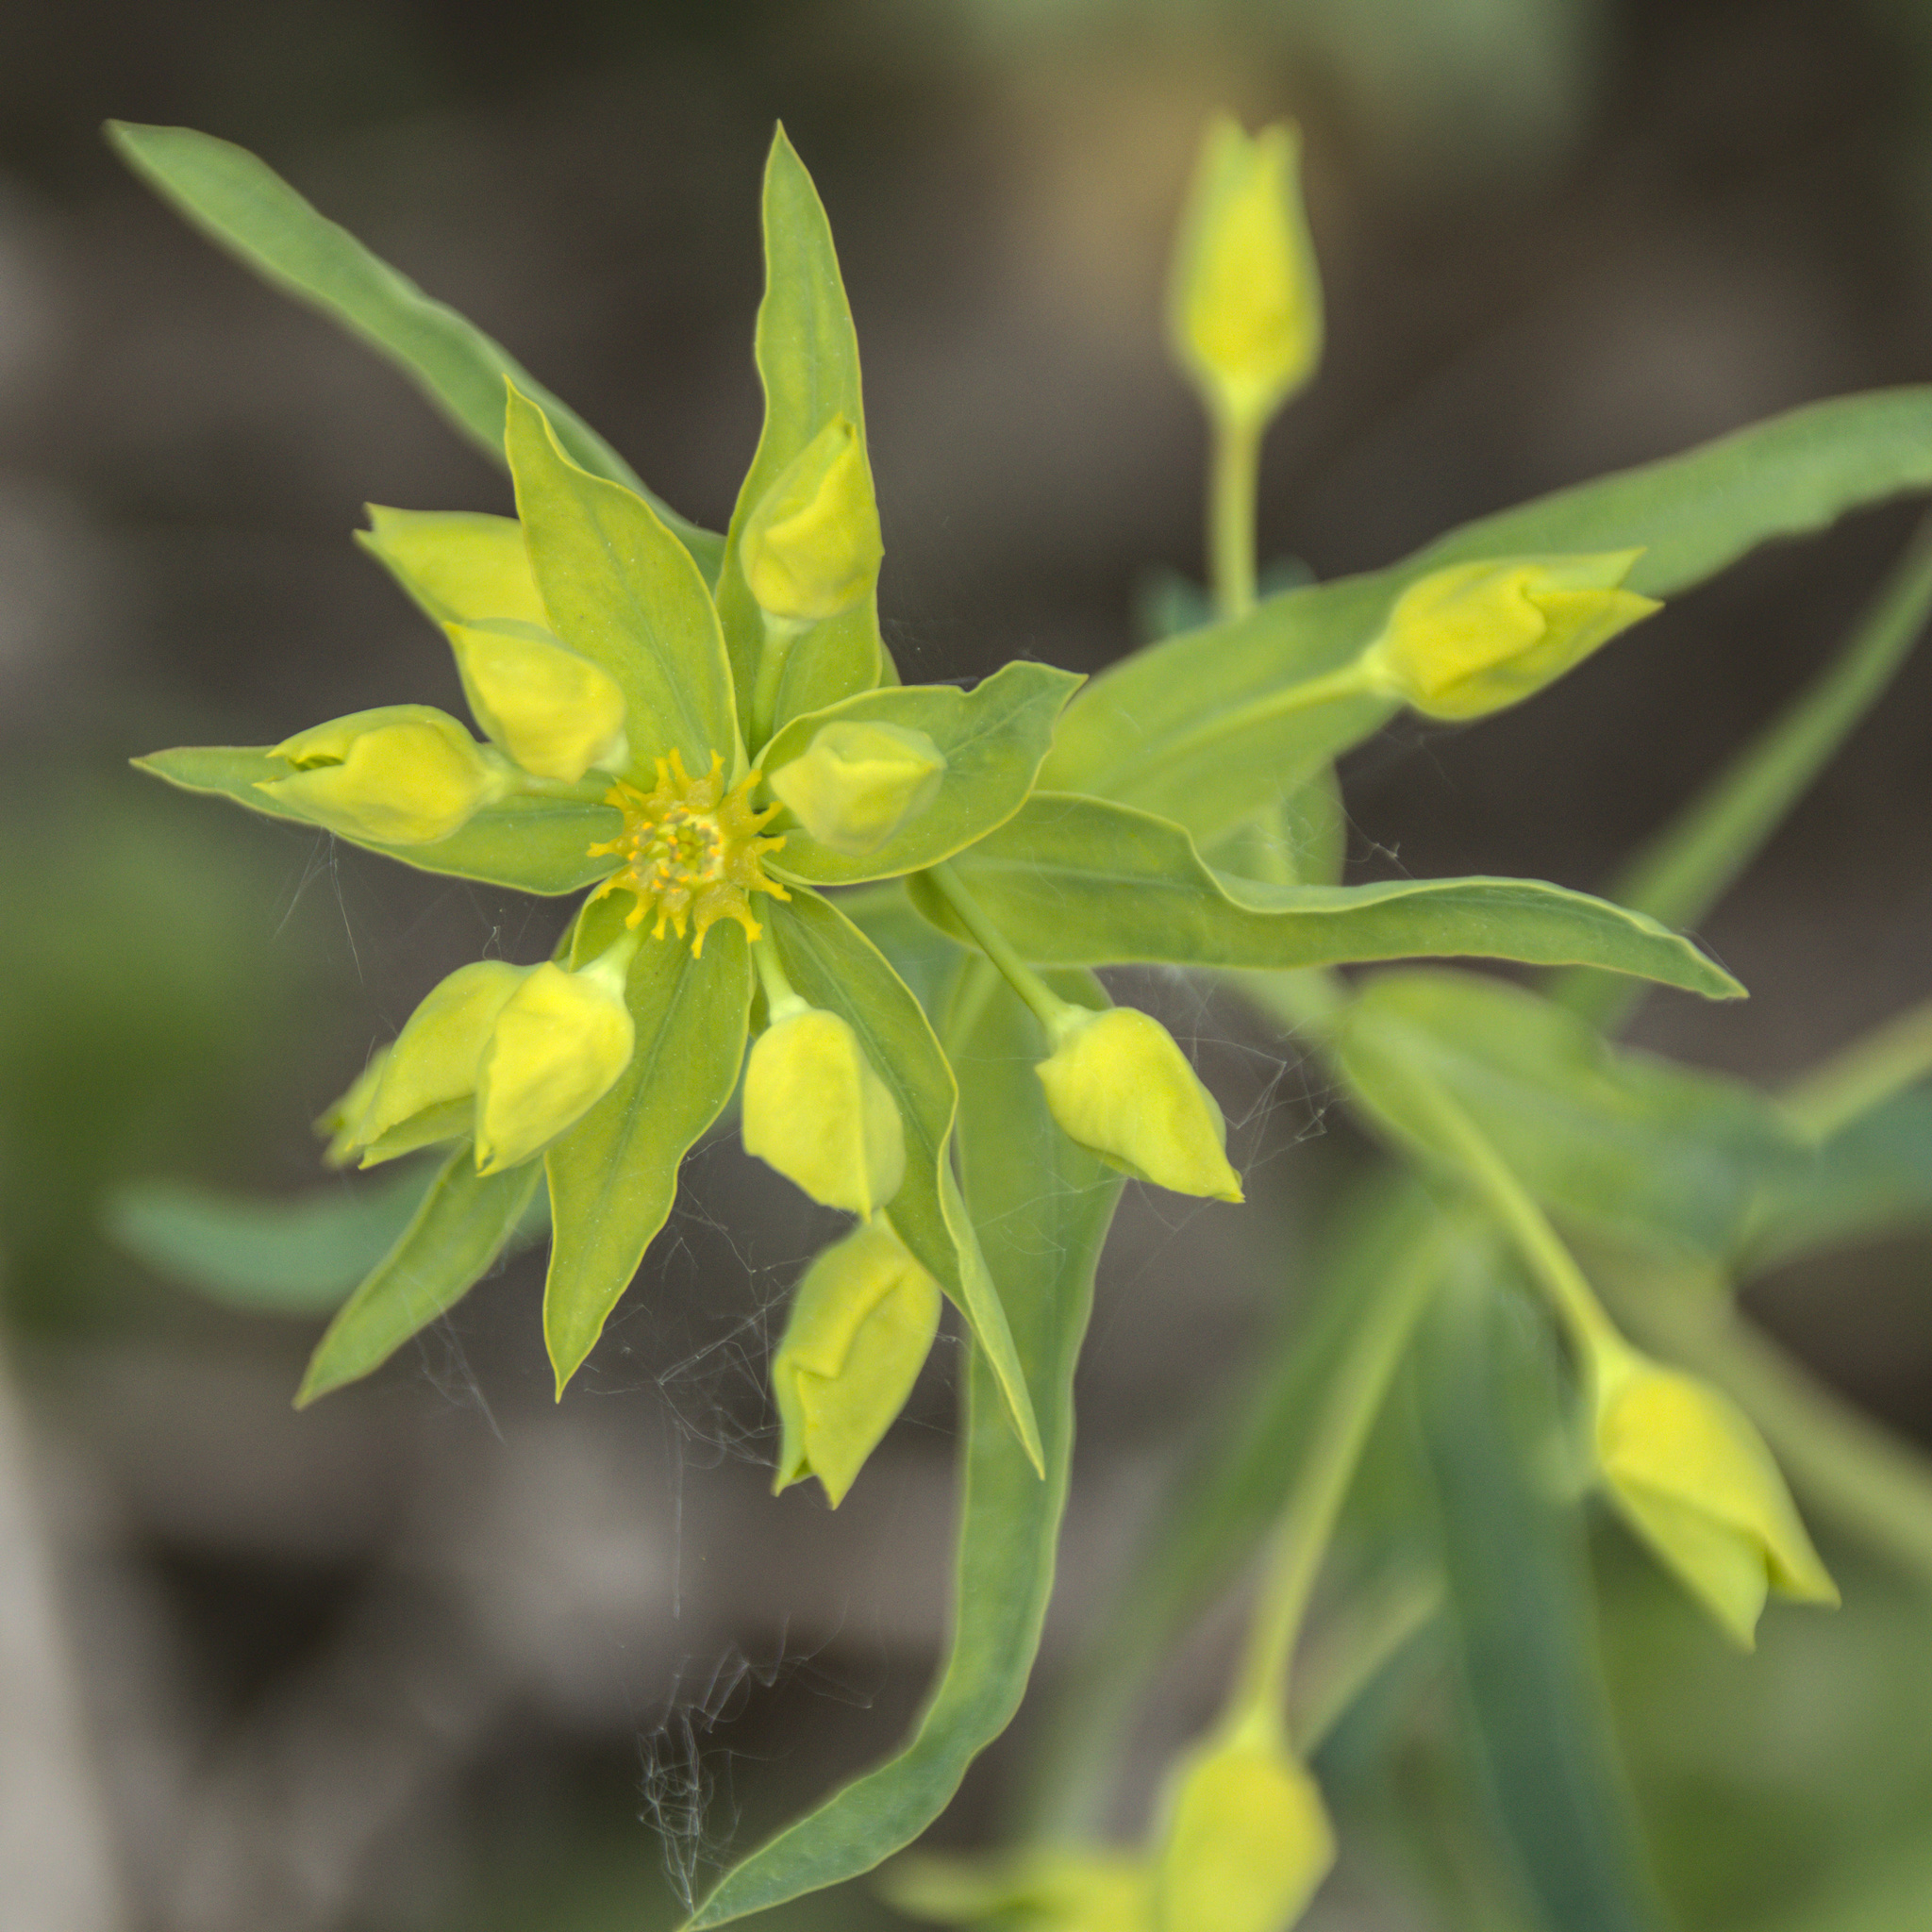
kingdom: Plantae
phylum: Tracheophyta
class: Magnoliopsida
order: Malpighiales
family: Euphorbiaceae
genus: Euphorbia
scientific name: Euphorbia virgata
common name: Leafy spurge
